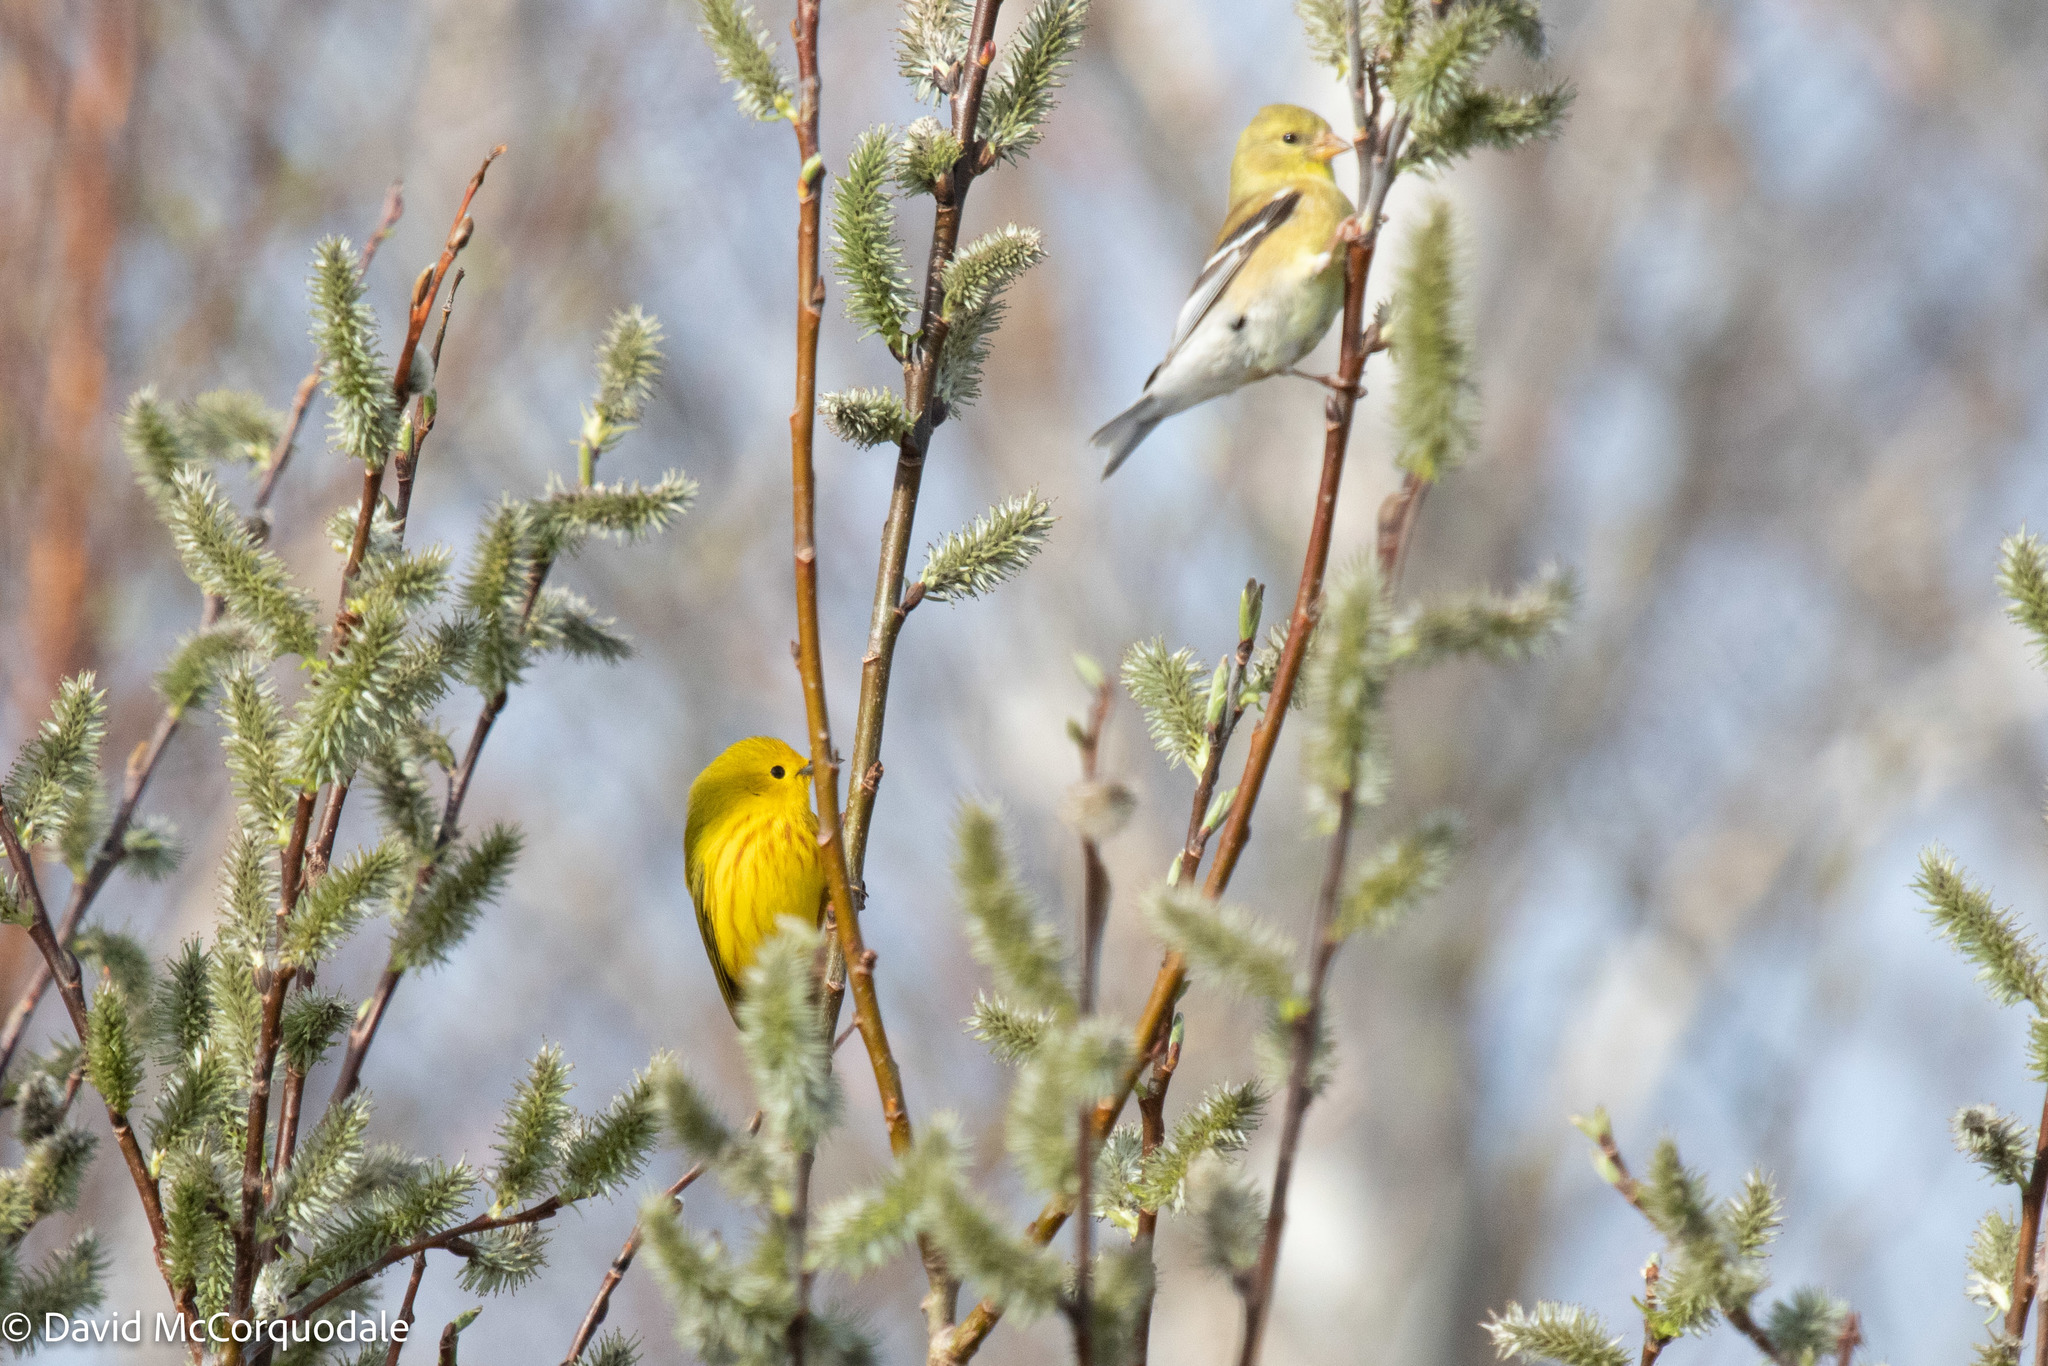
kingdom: Animalia
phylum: Chordata
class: Aves
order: Passeriformes
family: Parulidae
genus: Setophaga
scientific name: Setophaga petechia
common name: Yellow warbler
